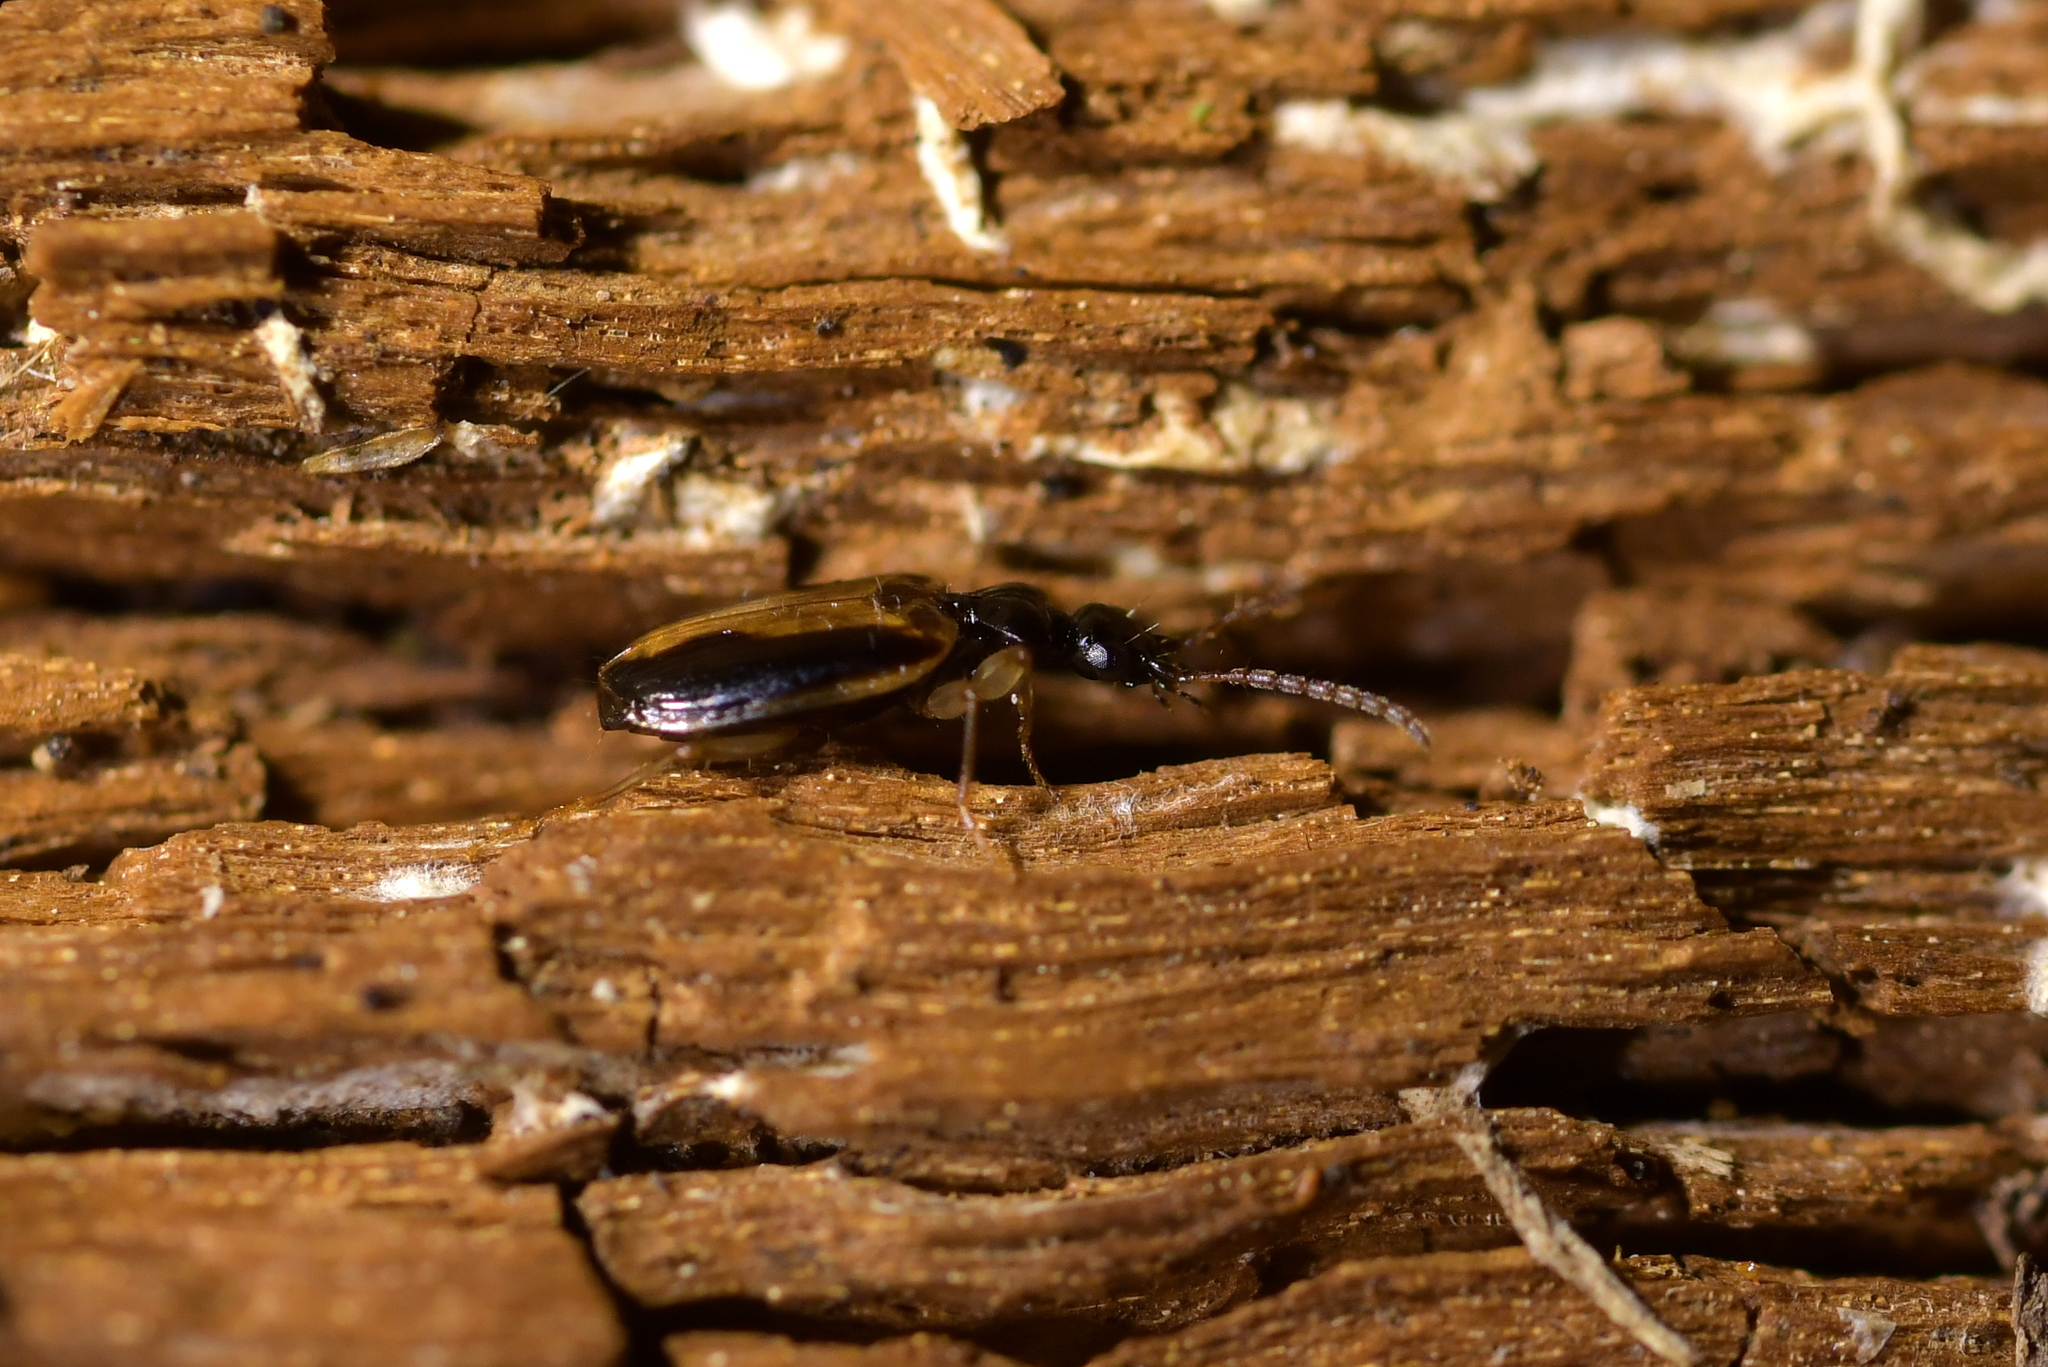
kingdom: Animalia
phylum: Arthropoda
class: Insecta
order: Coleoptera
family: Carabidae
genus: Pentagonica
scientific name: Pentagonica vittipennis
